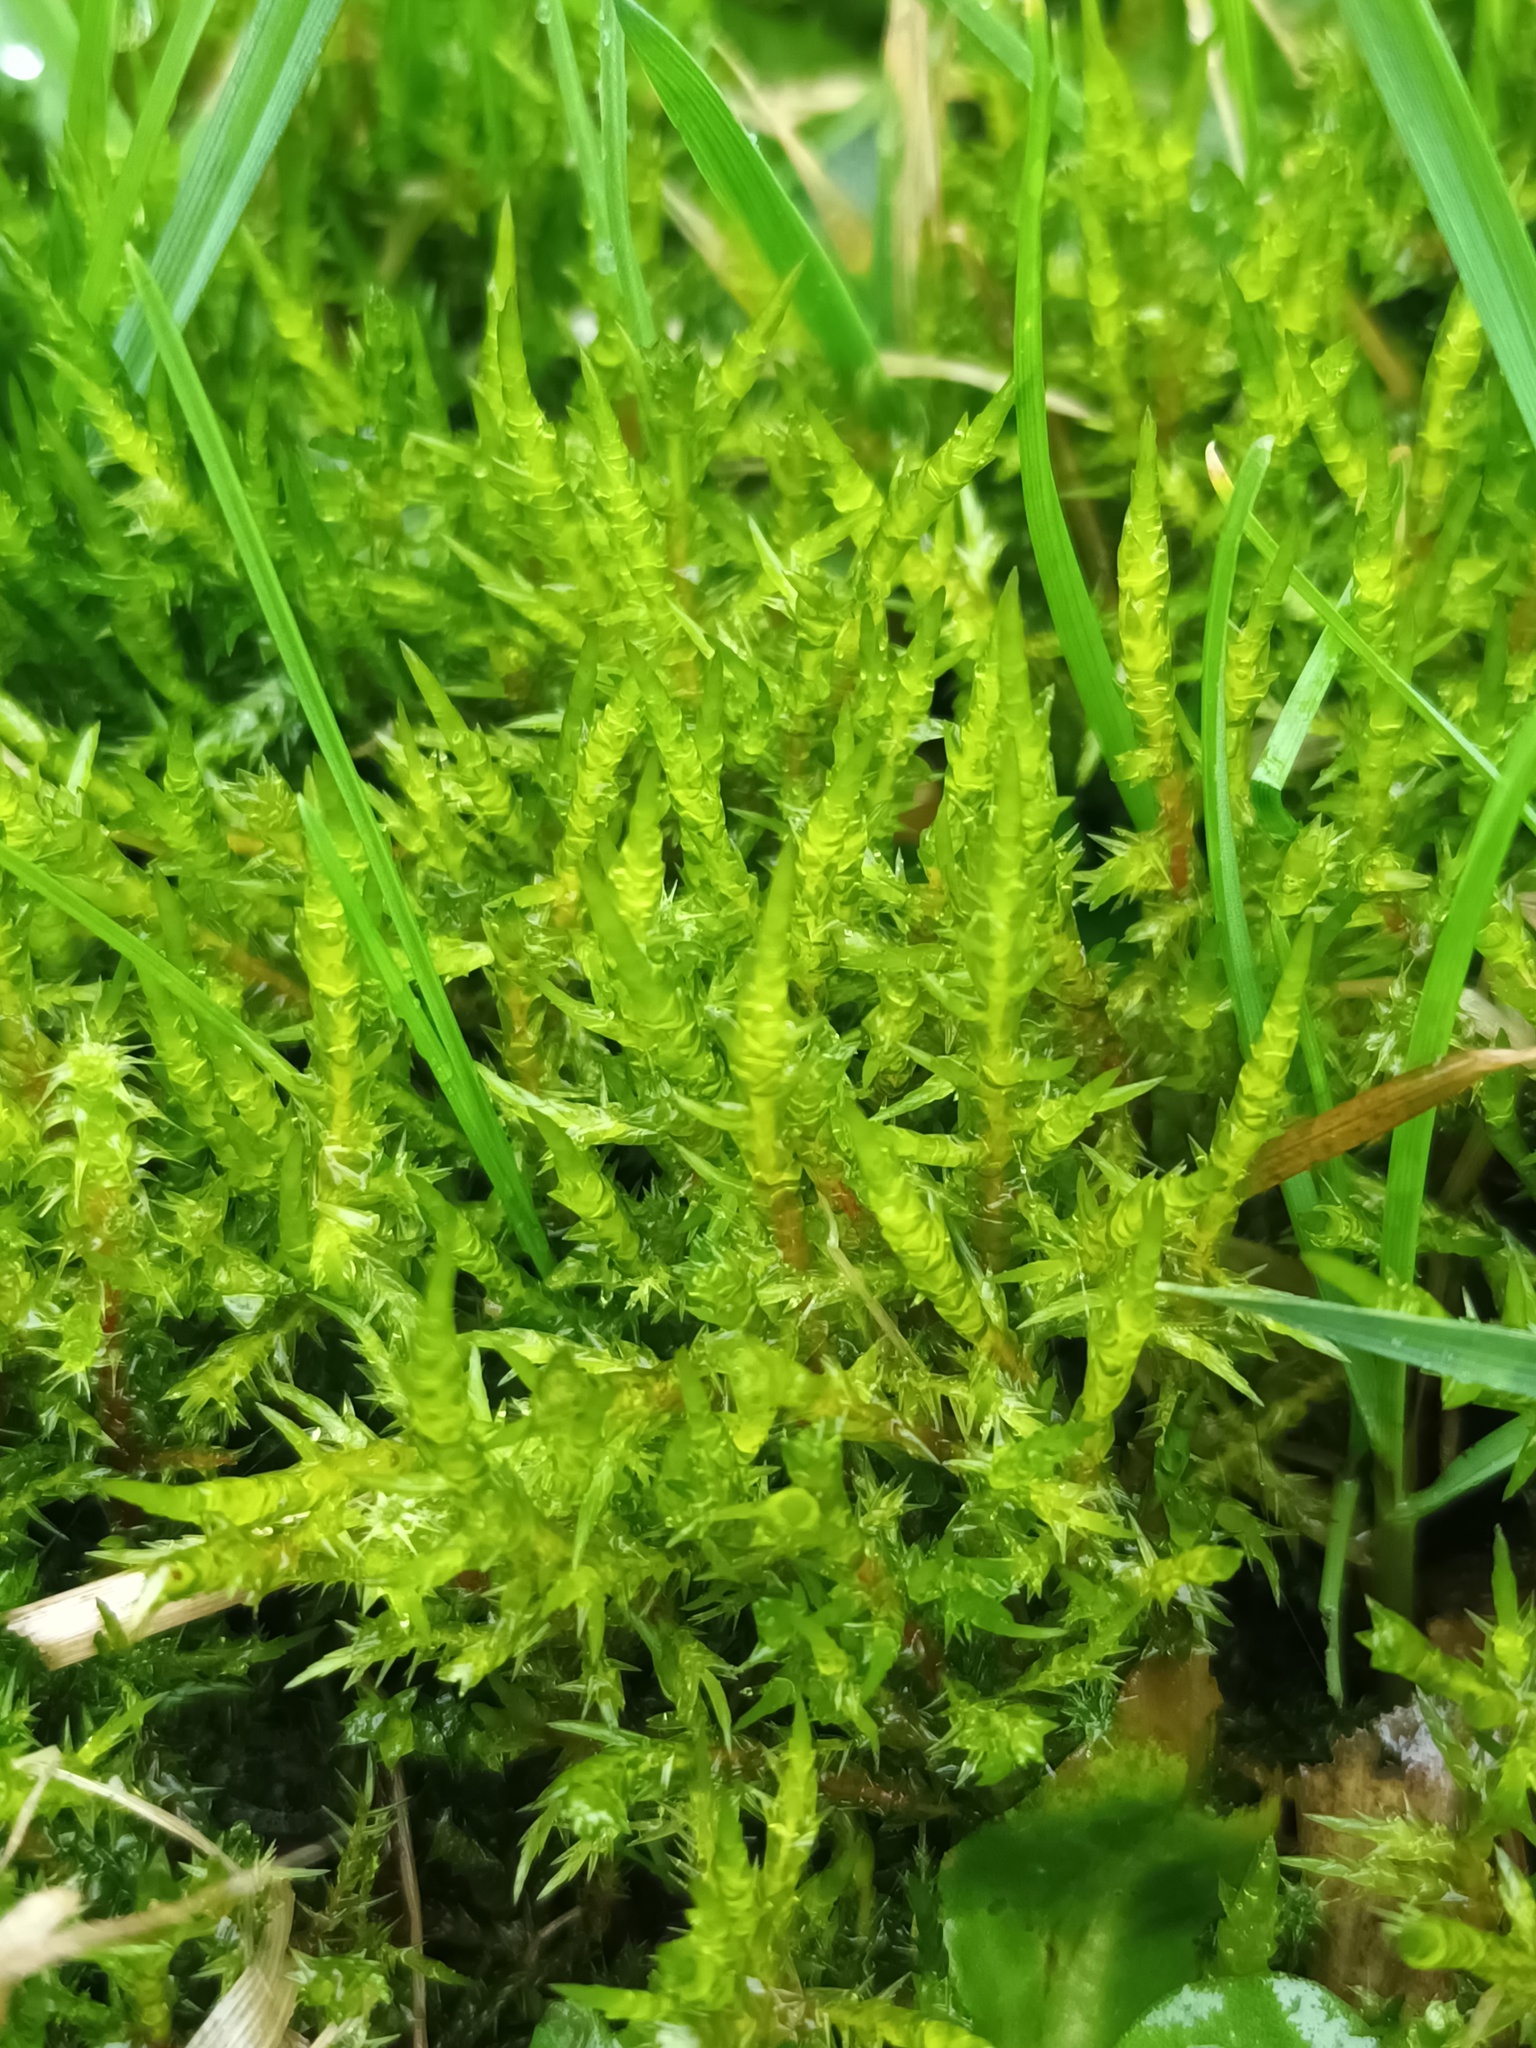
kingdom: Plantae
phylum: Bryophyta
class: Bryopsida
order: Hypnales
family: Pylaisiaceae
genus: Calliergonella
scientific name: Calliergonella cuspidata
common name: Common large wetland moss
